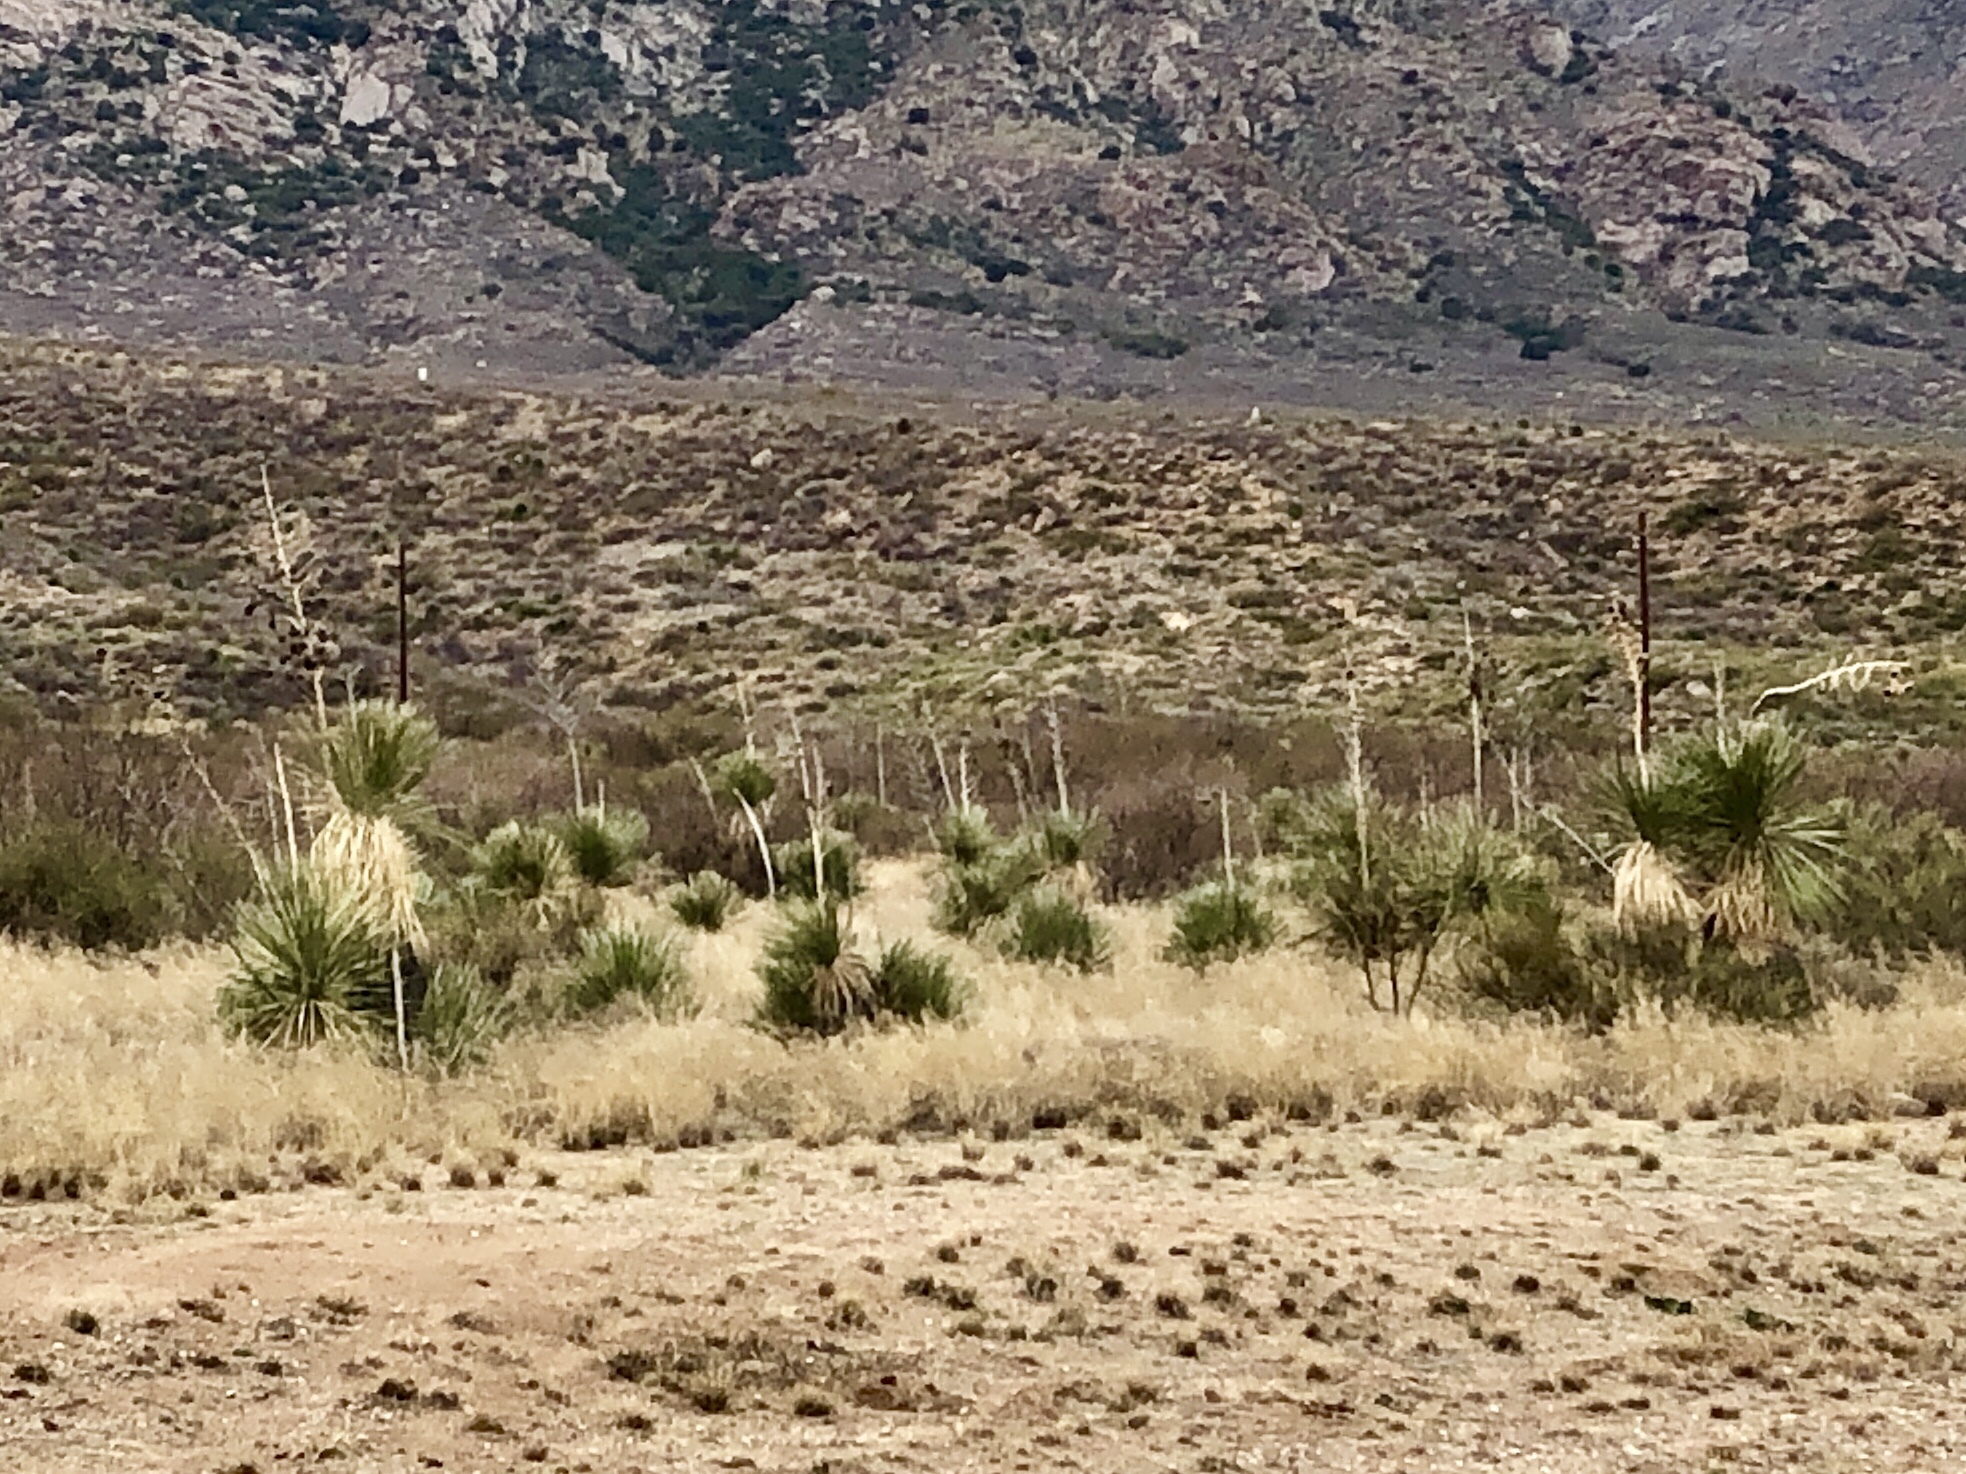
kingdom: Plantae
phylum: Tracheophyta
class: Liliopsida
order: Asparagales
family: Asparagaceae
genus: Yucca
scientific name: Yucca elata
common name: Palmella
